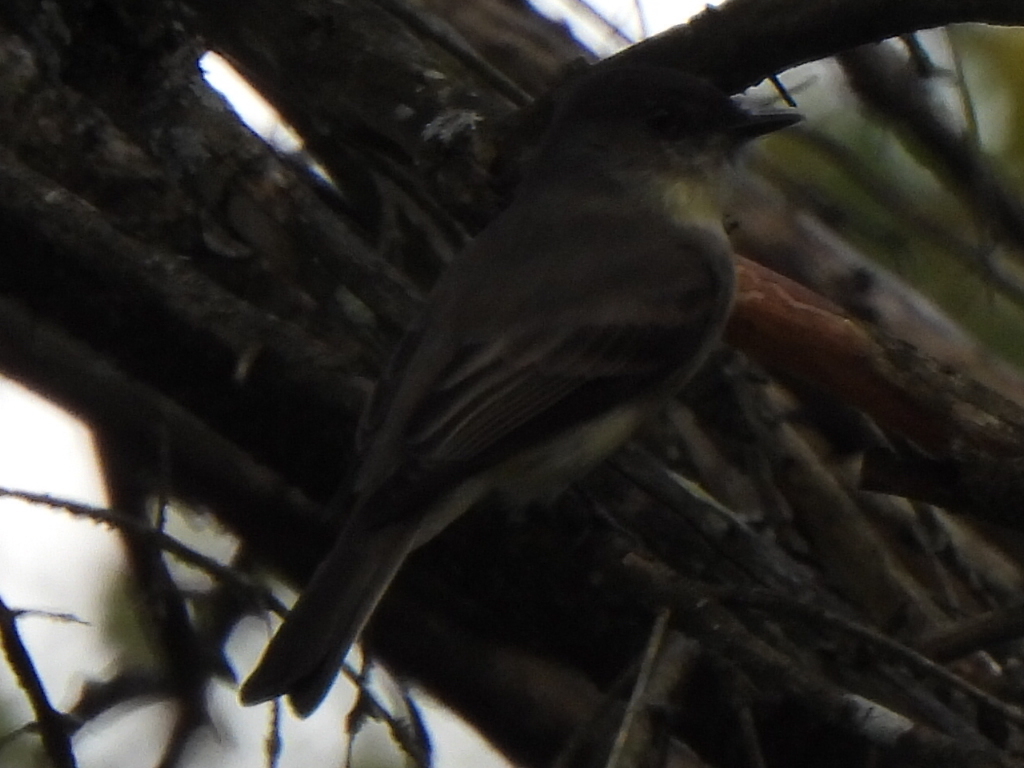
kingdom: Animalia
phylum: Chordata
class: Aves
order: Passeriformes
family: Tyrannidae
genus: Sayornis
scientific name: Sayornis phoebe
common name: Eastern phoebe
